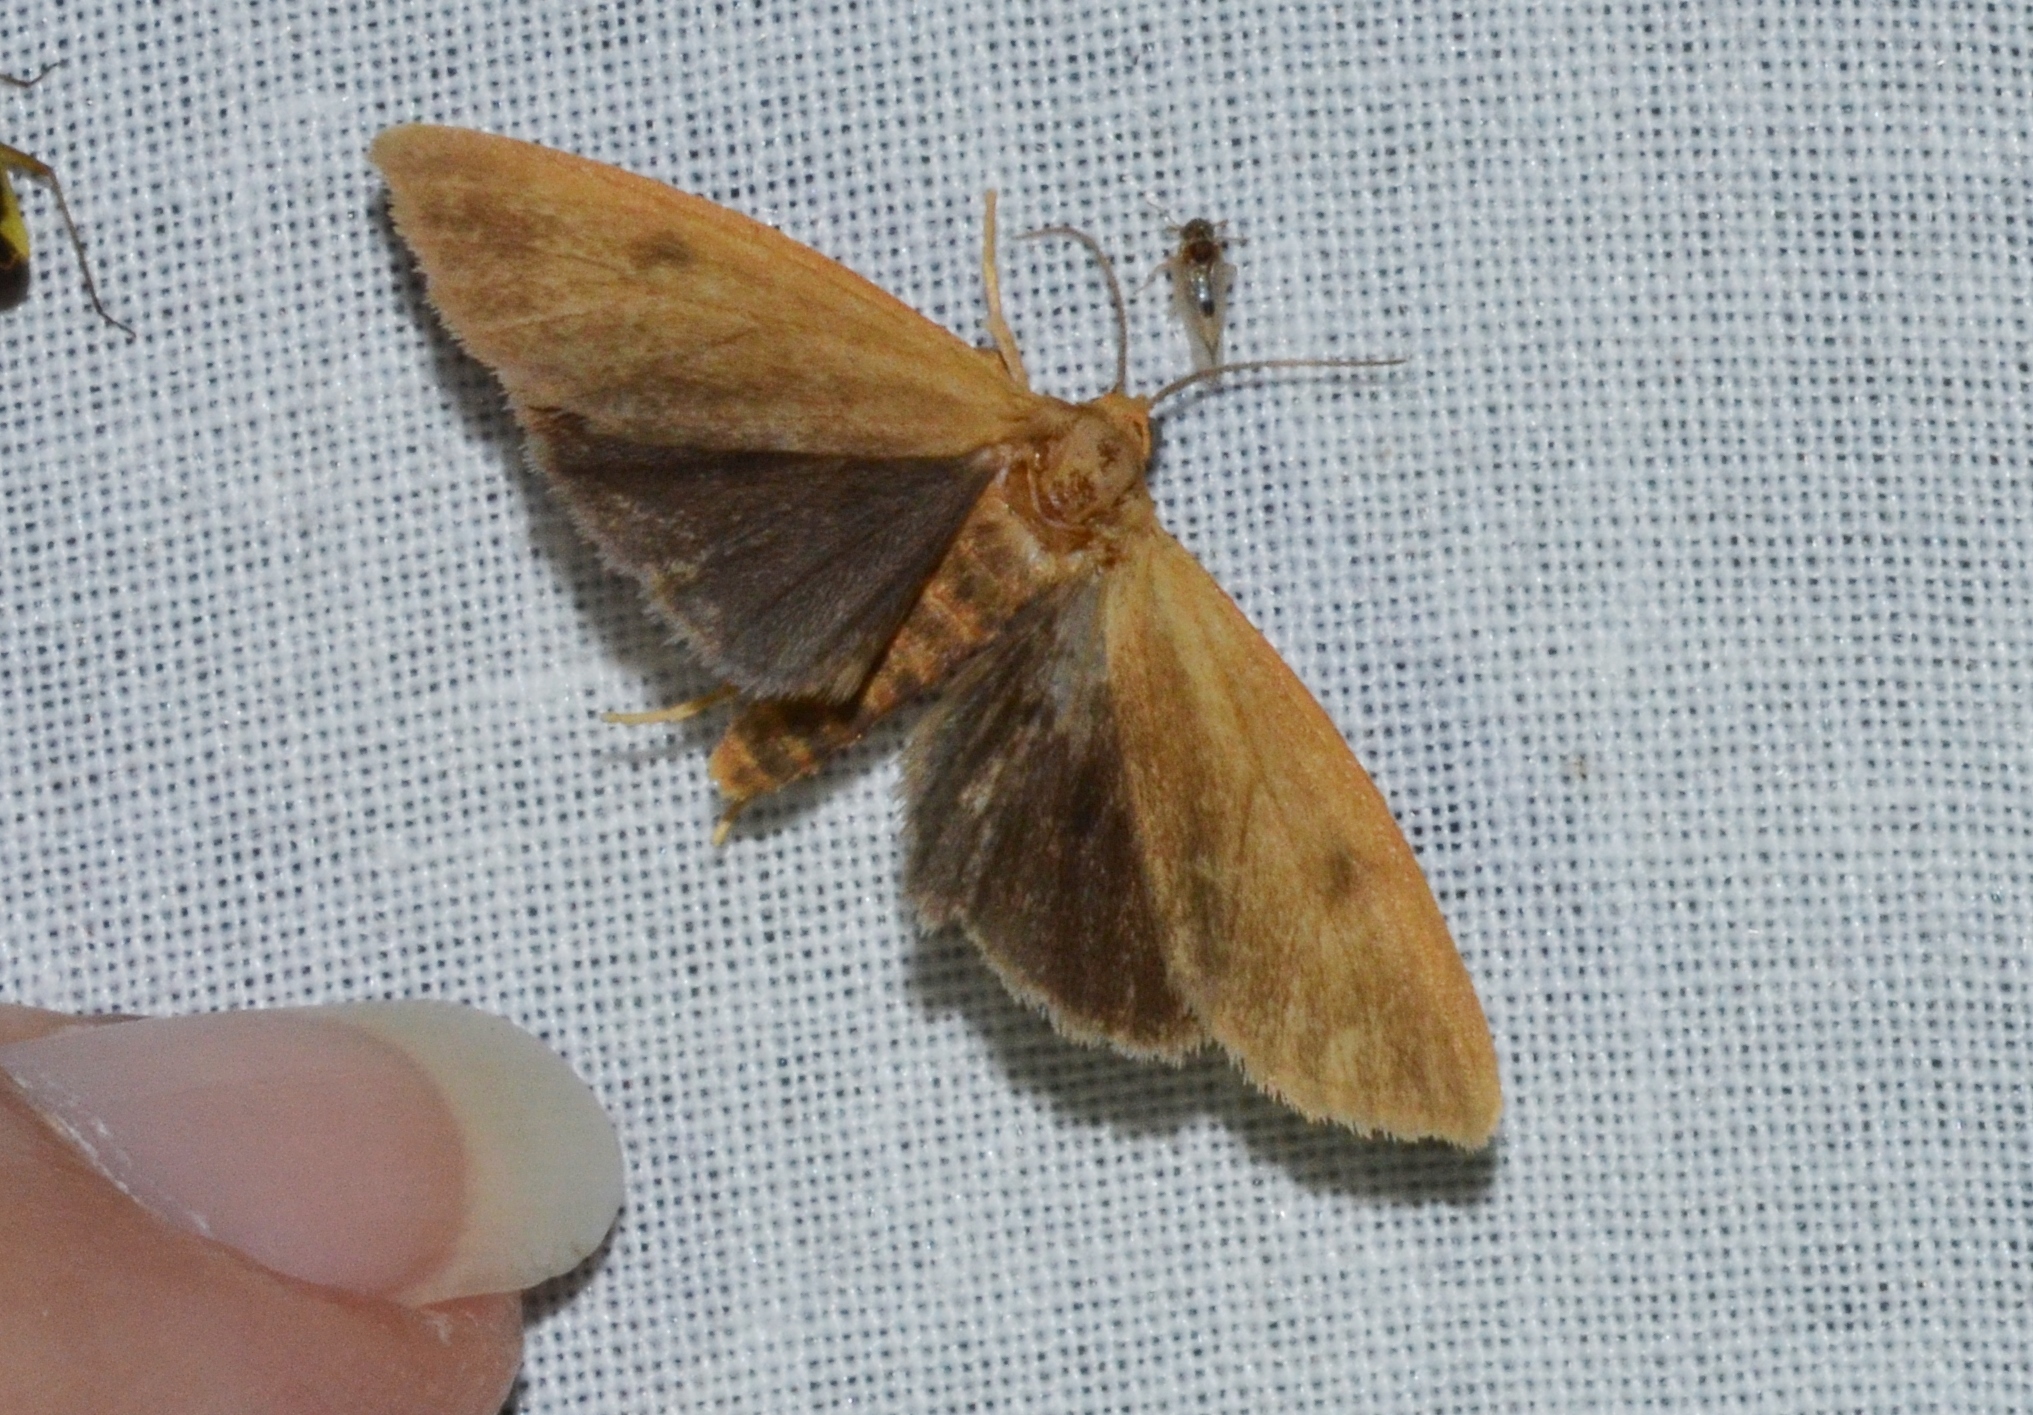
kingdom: Animalia
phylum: Arthropoda
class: Insecta
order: Lepidoptera
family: Erebidae
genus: Virbia
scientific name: Virbia opella
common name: Tawny virbia moth
